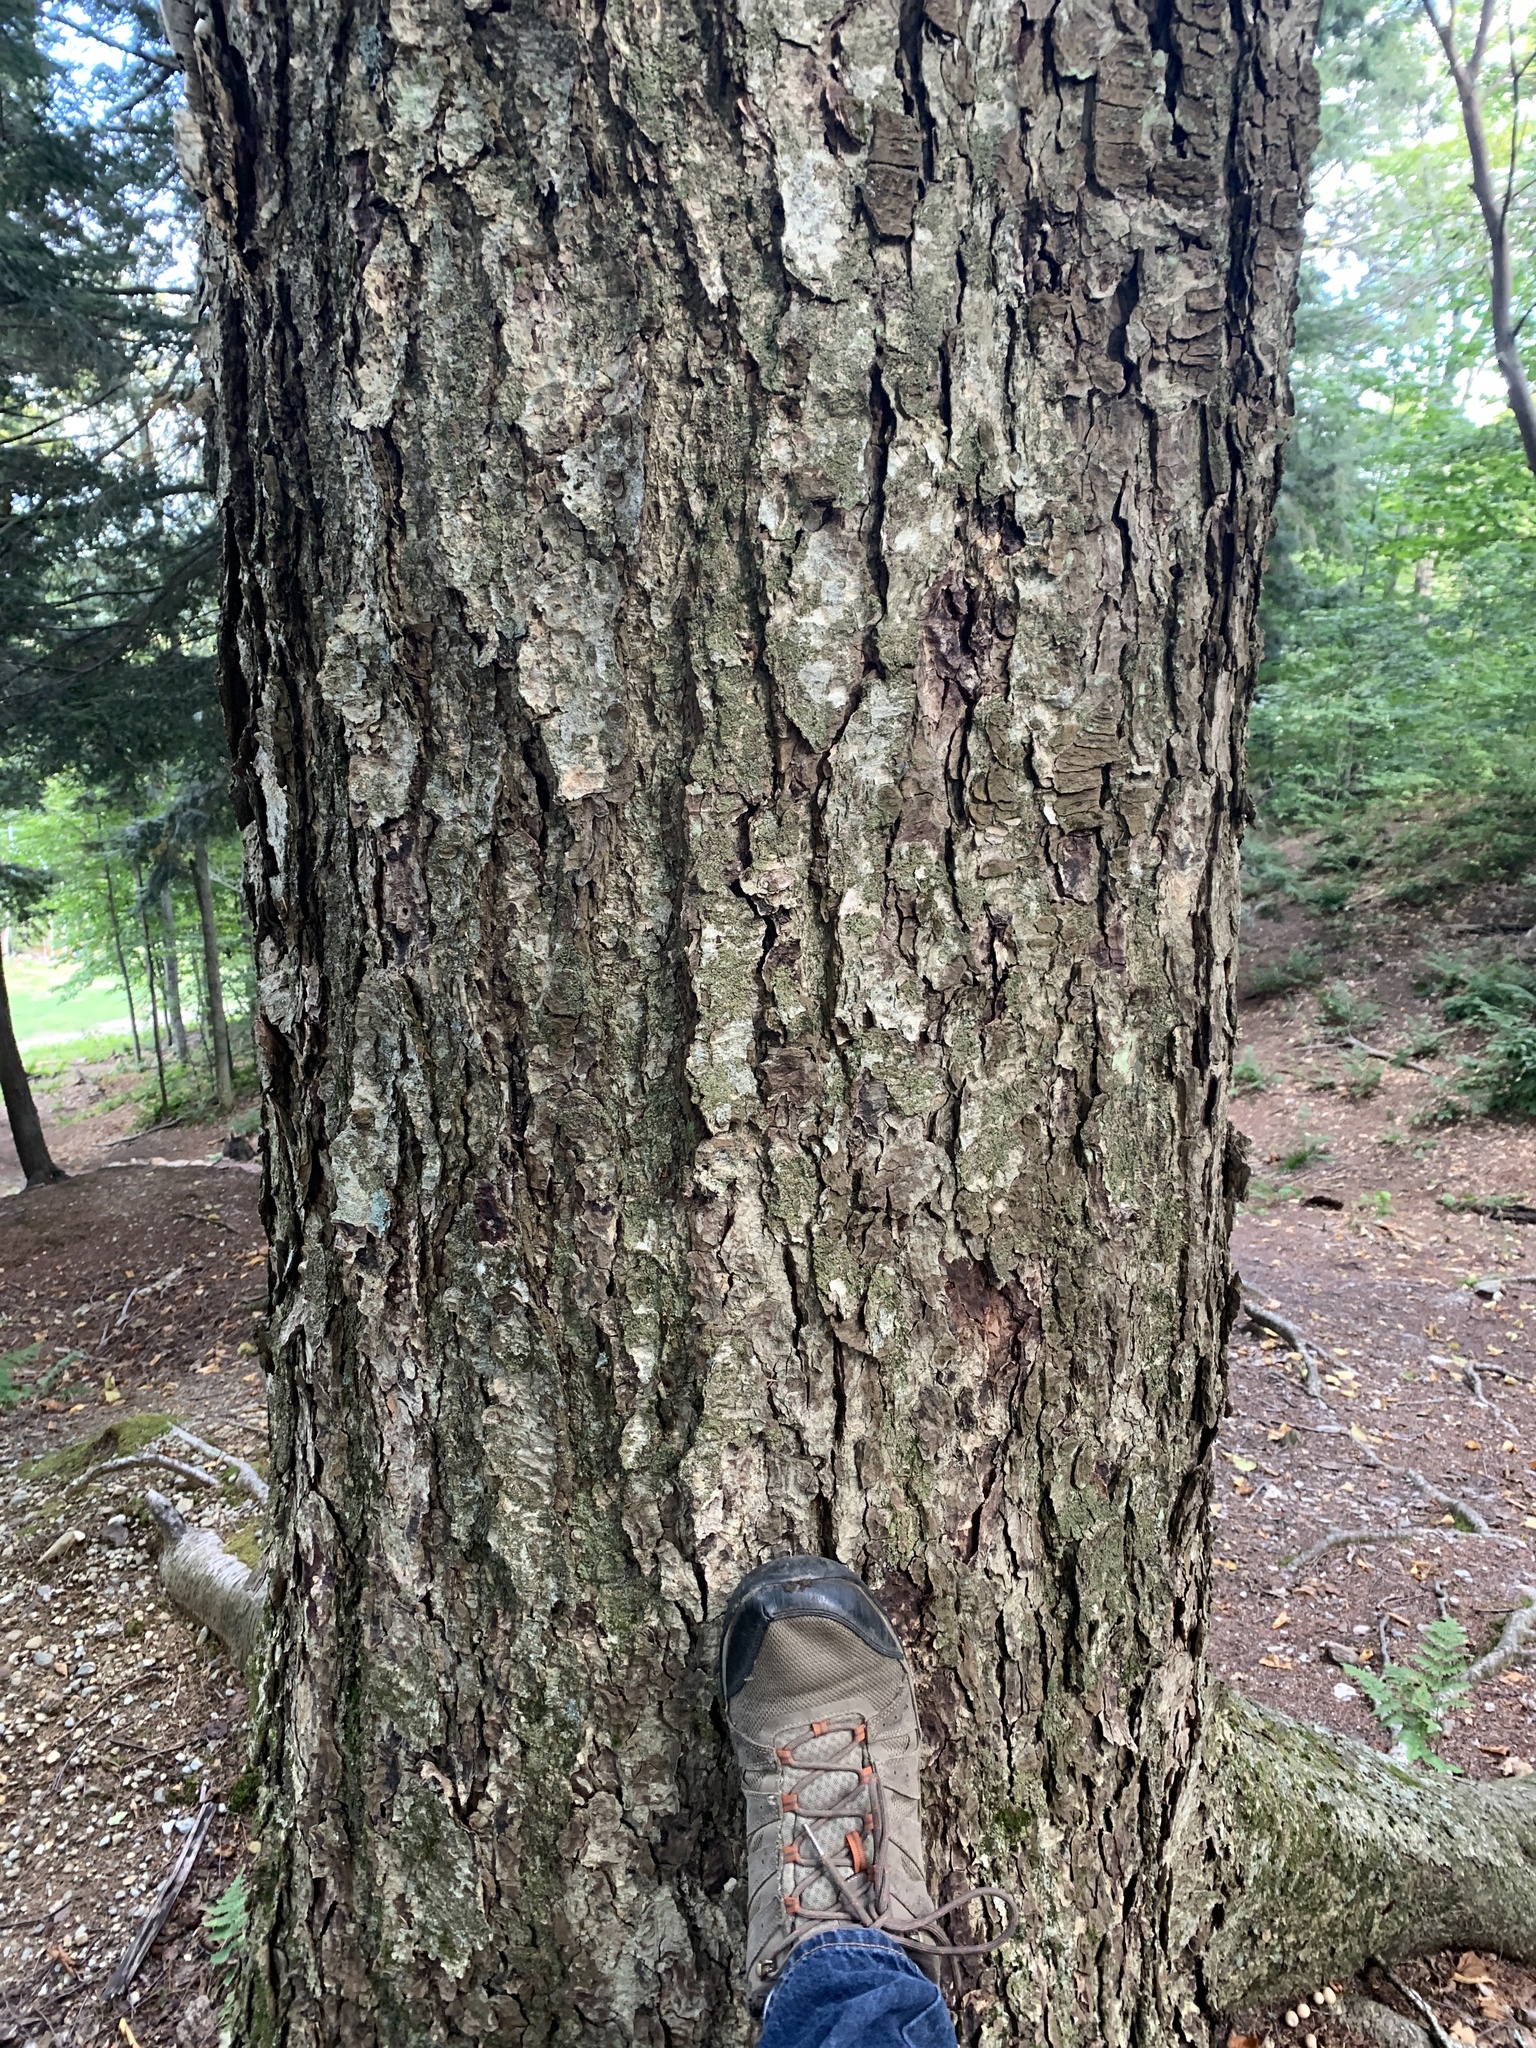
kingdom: Plantae
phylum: Tracheophyta
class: Magnoliopsida
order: Fagales
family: Betulaceae
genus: Betula
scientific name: Betula alleghaniensis
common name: Yellow birch
